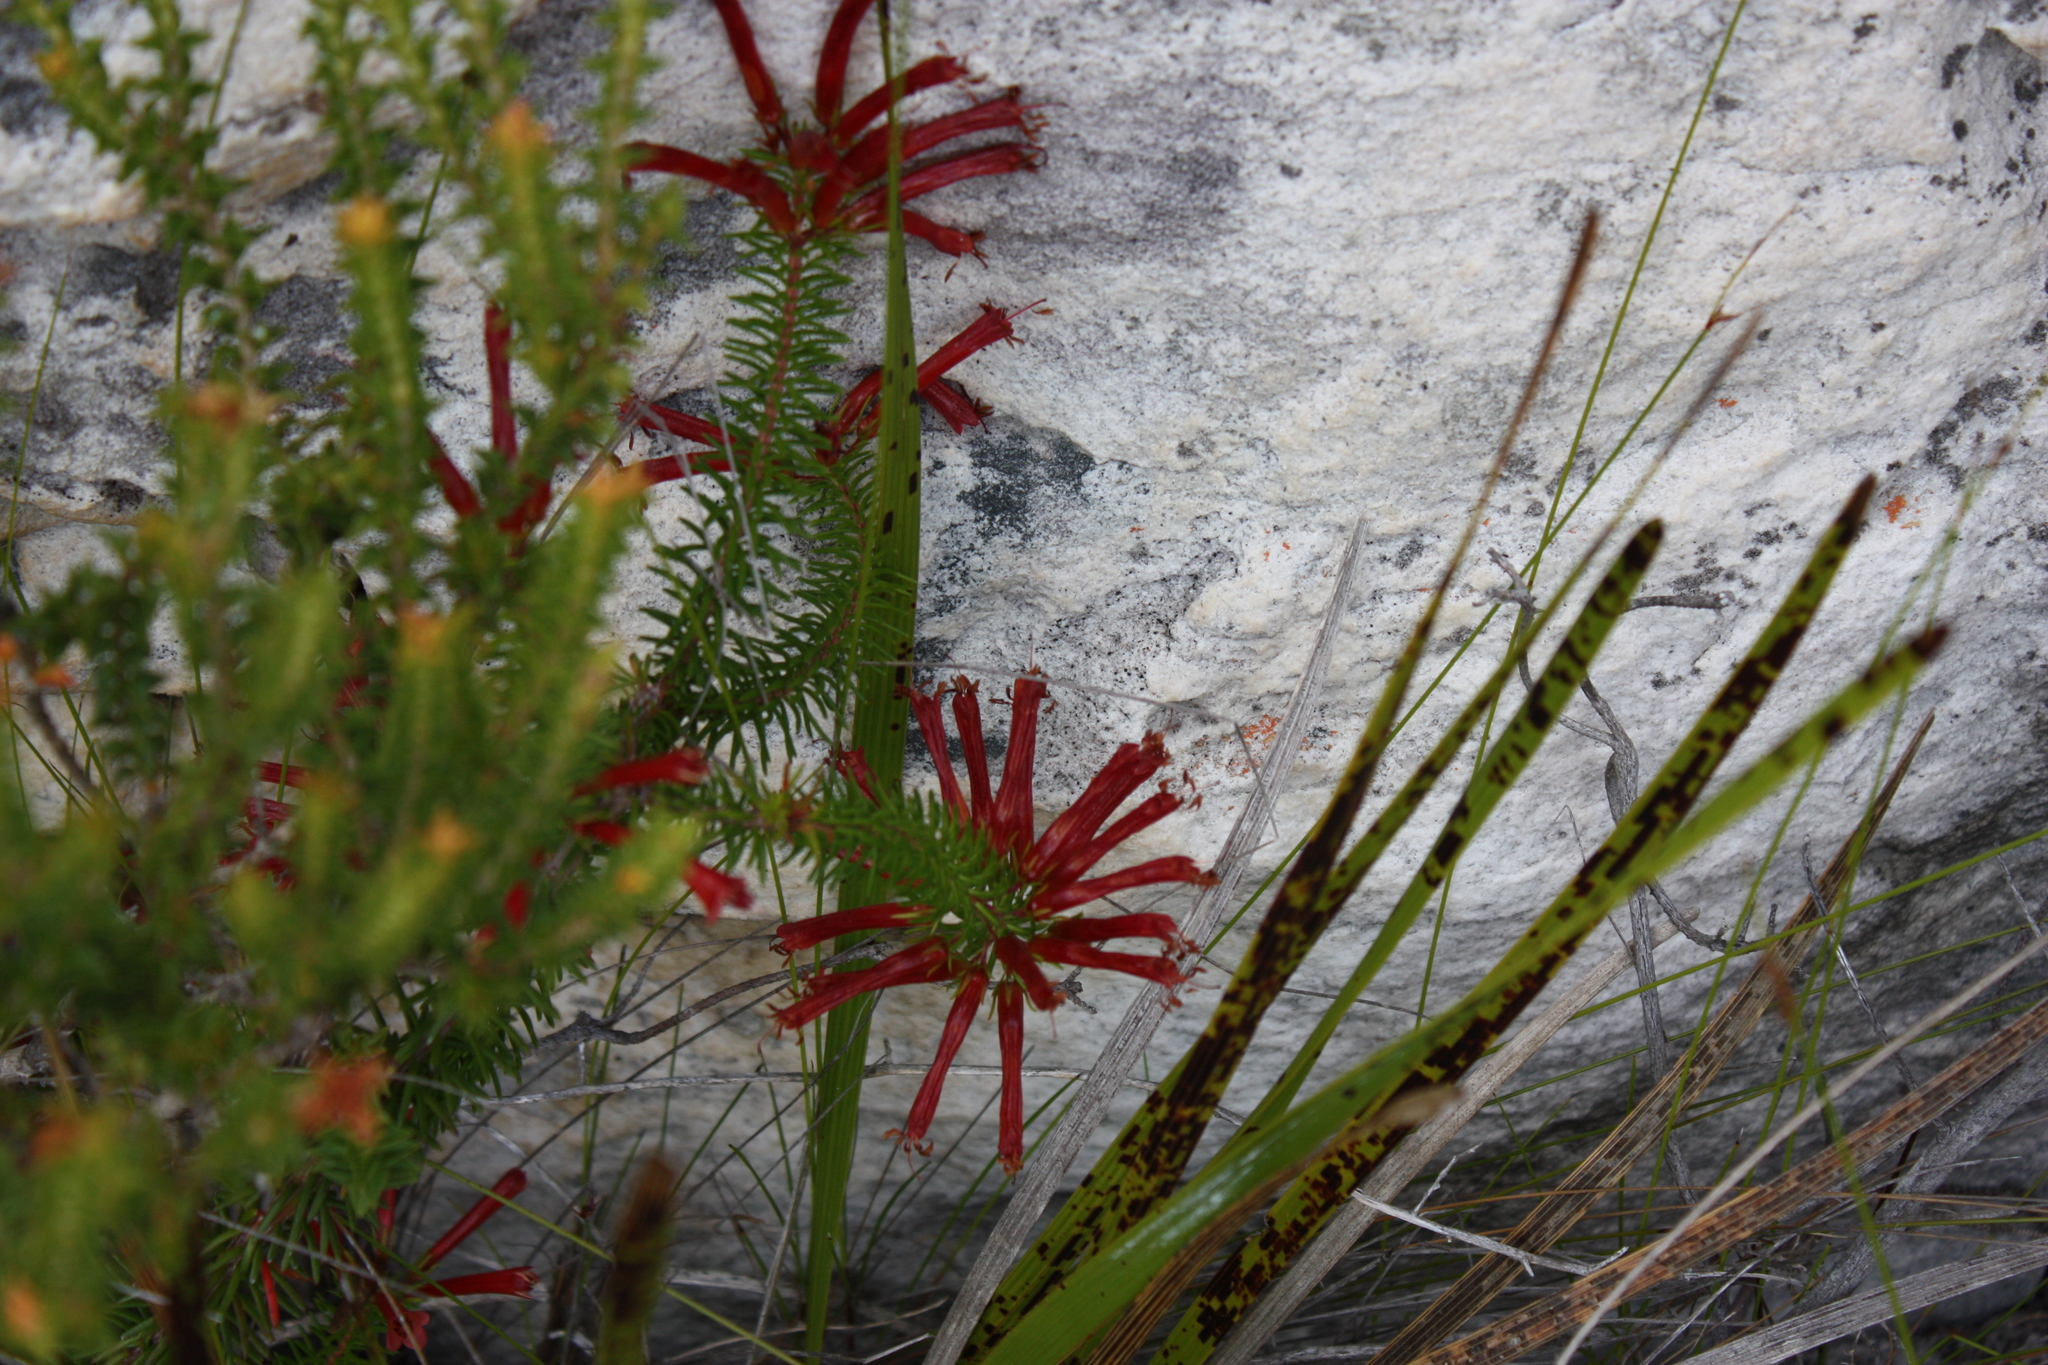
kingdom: Plantae
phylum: Tracheophyta
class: Magnoliopsida
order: Ericales
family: Ericaceae
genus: Erica
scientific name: Erica nevillei
